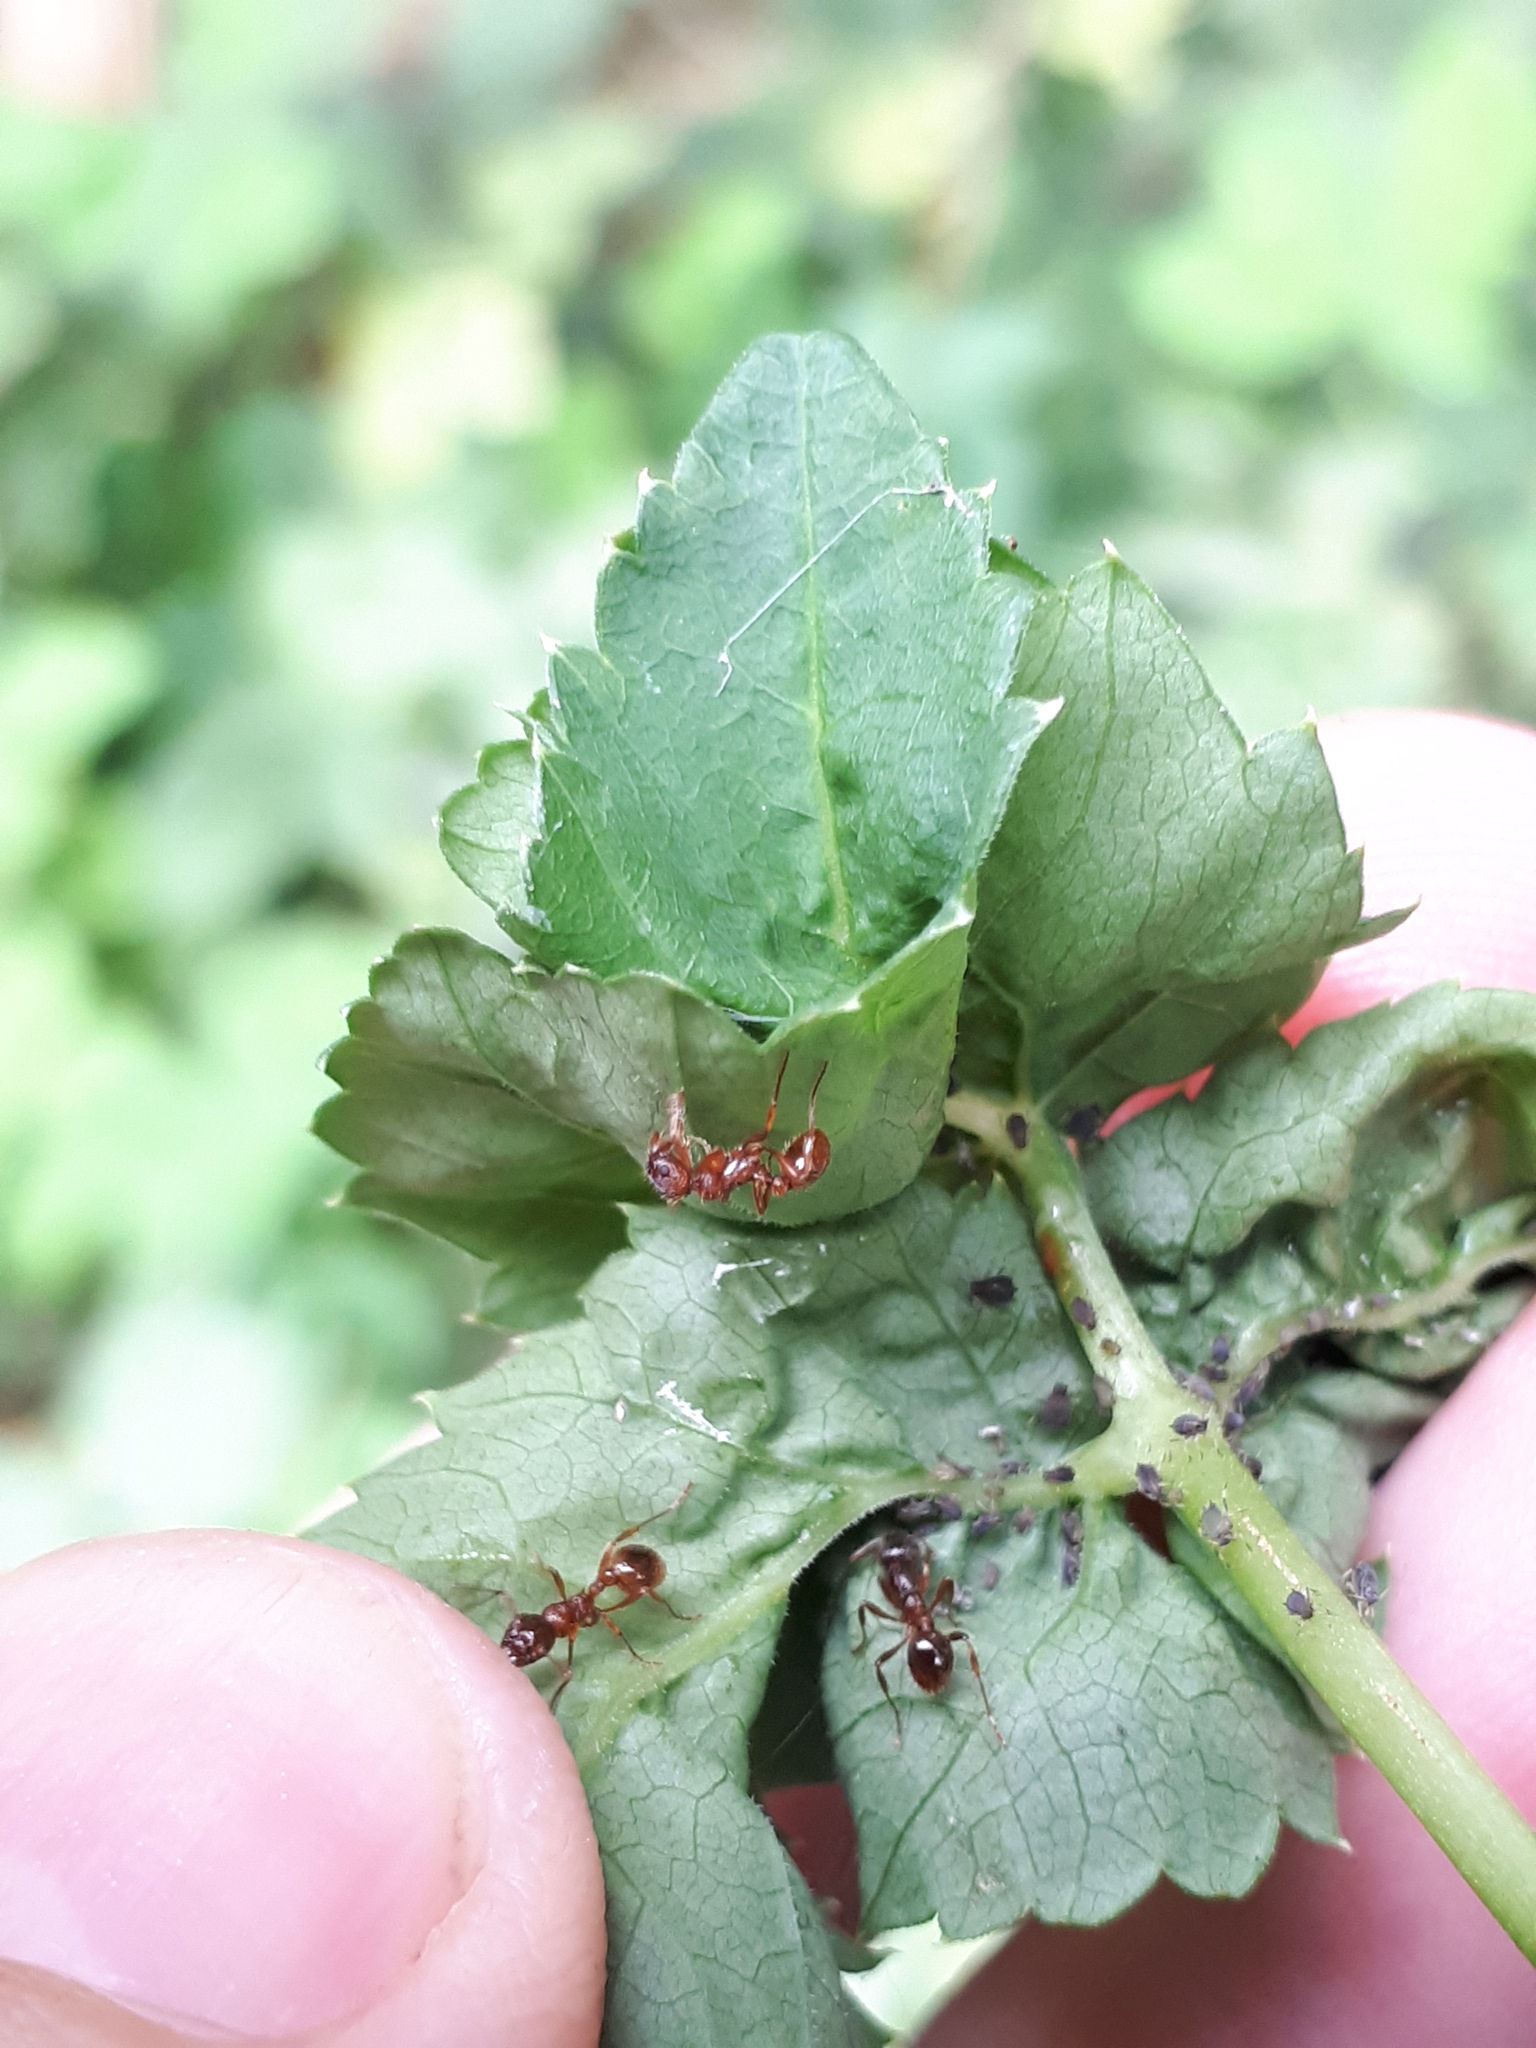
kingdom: Animalia
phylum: Arthropoda
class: Insecta
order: Hemiptera
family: Aphididae
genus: Aphis
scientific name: Aphis podagrariae
